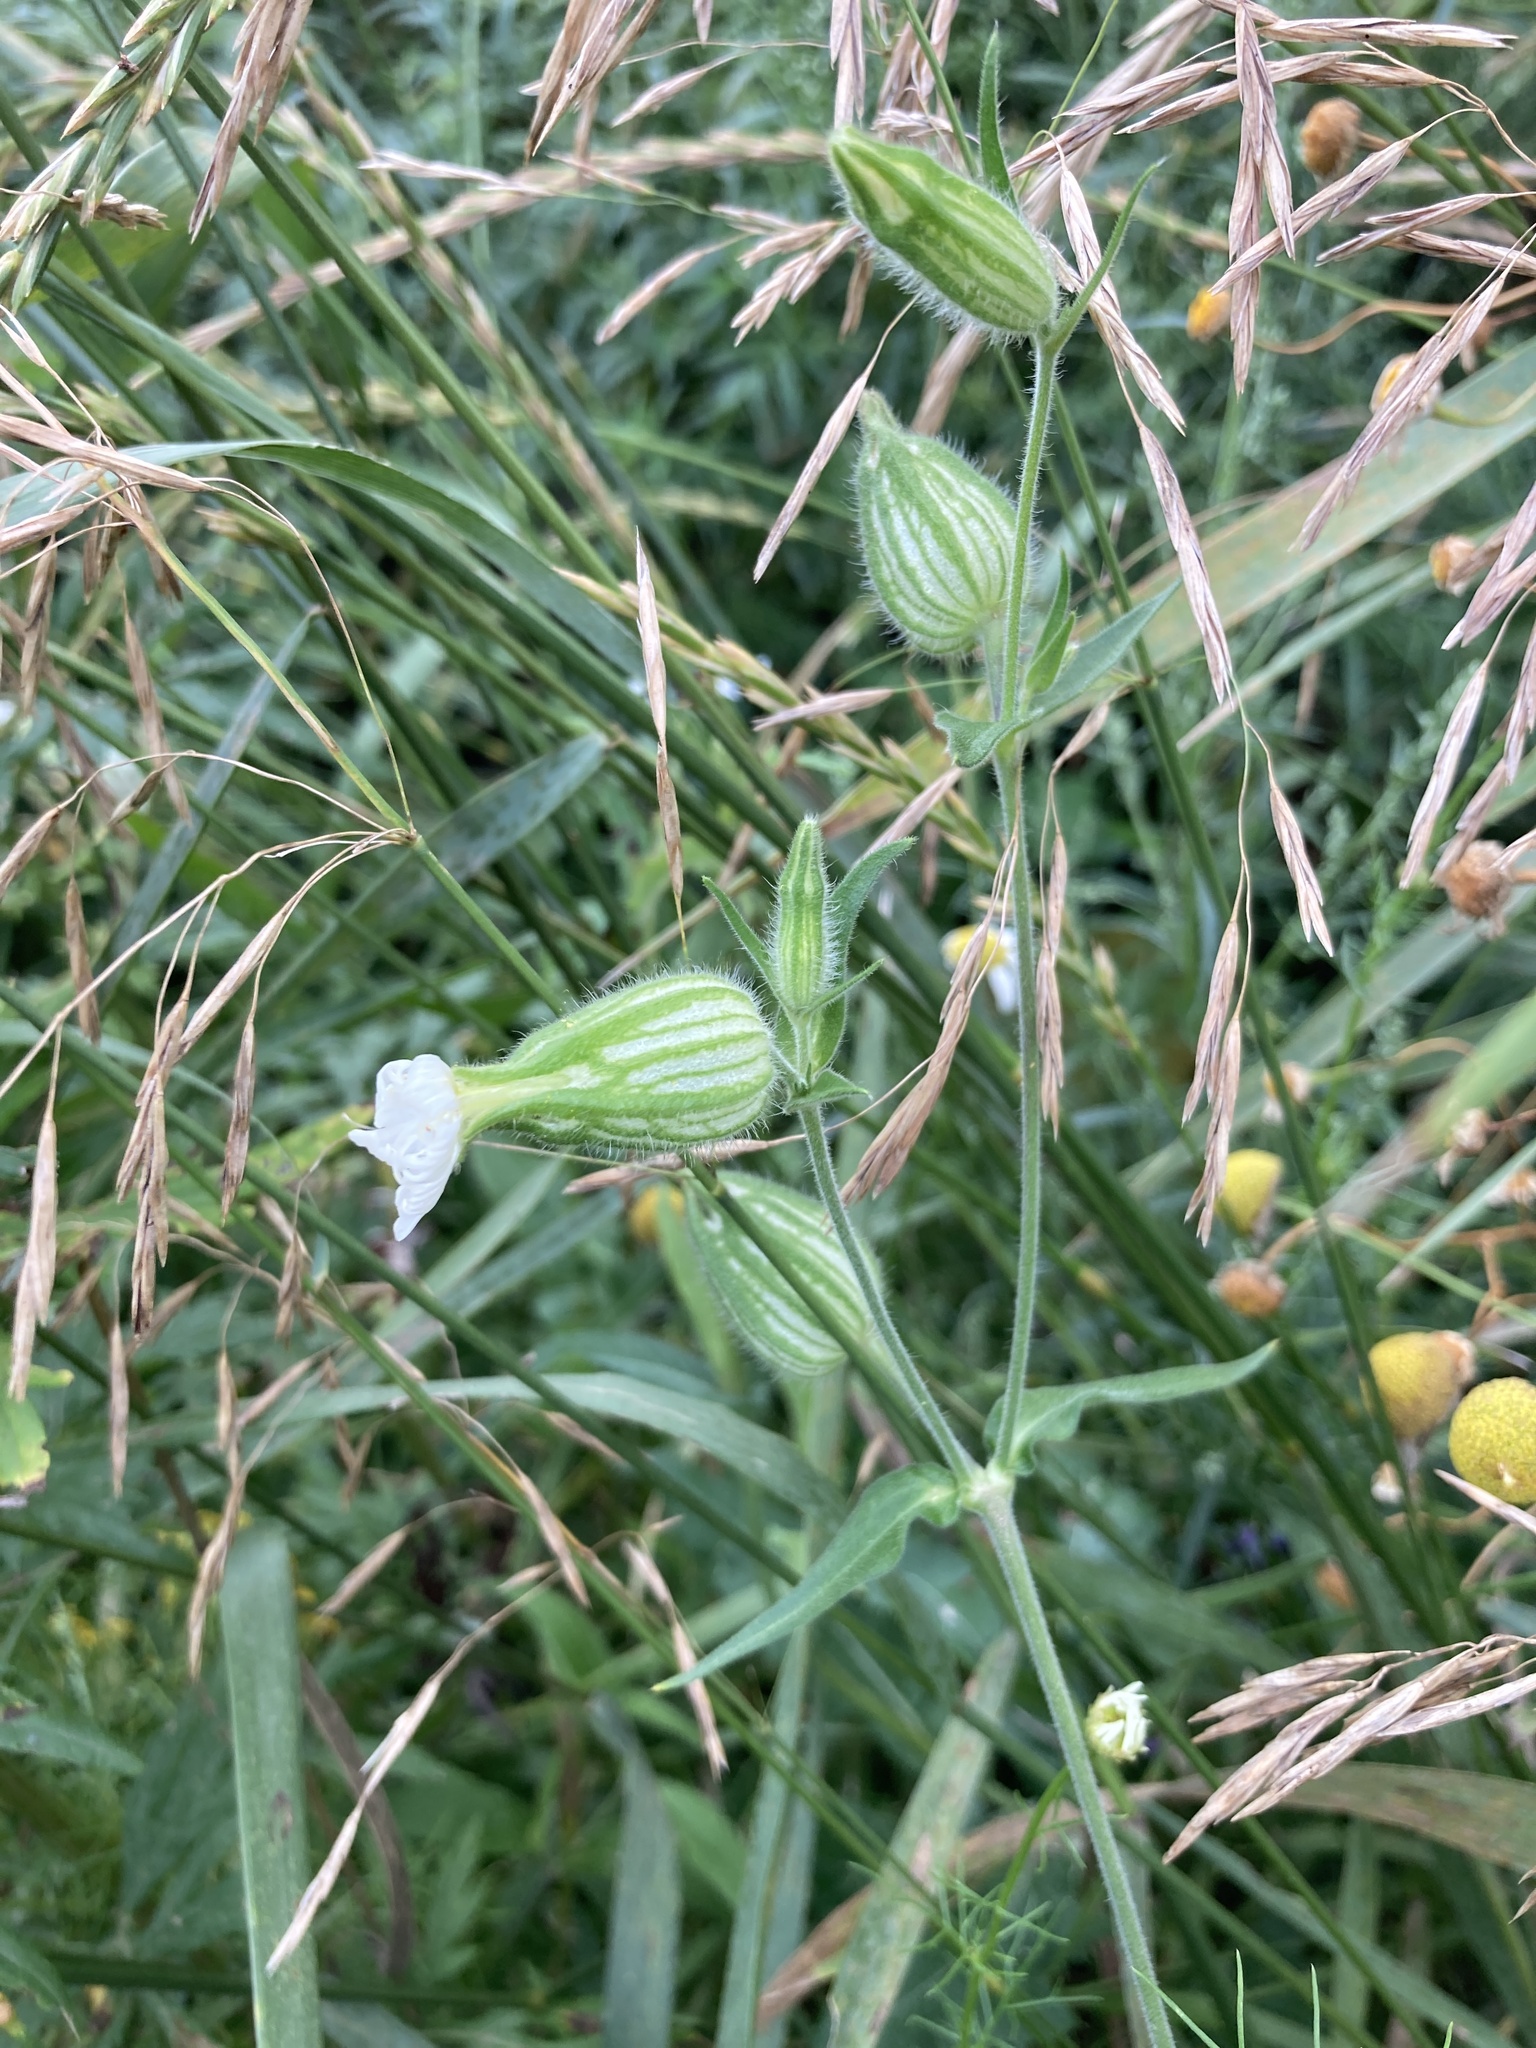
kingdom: Plantae
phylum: Tracheophyta
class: Magnoliopsida
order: Caryophyllales
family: Caryophyllaceae
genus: Silene
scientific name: Silene latifolia
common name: White campion
